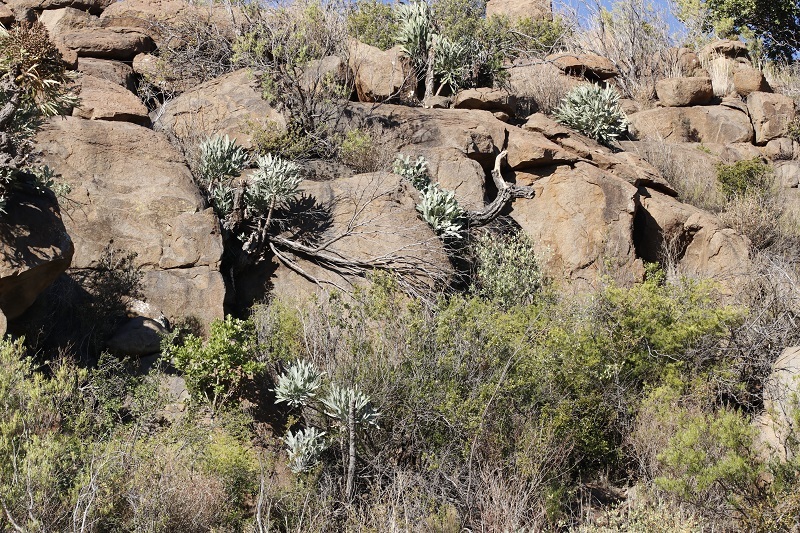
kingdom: Plantae
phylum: Tracheophyta
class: Magnoliopsida
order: Apiales
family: Araliaceae
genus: Cussonia
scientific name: Cussonia paniculata
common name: Cabbagetree
